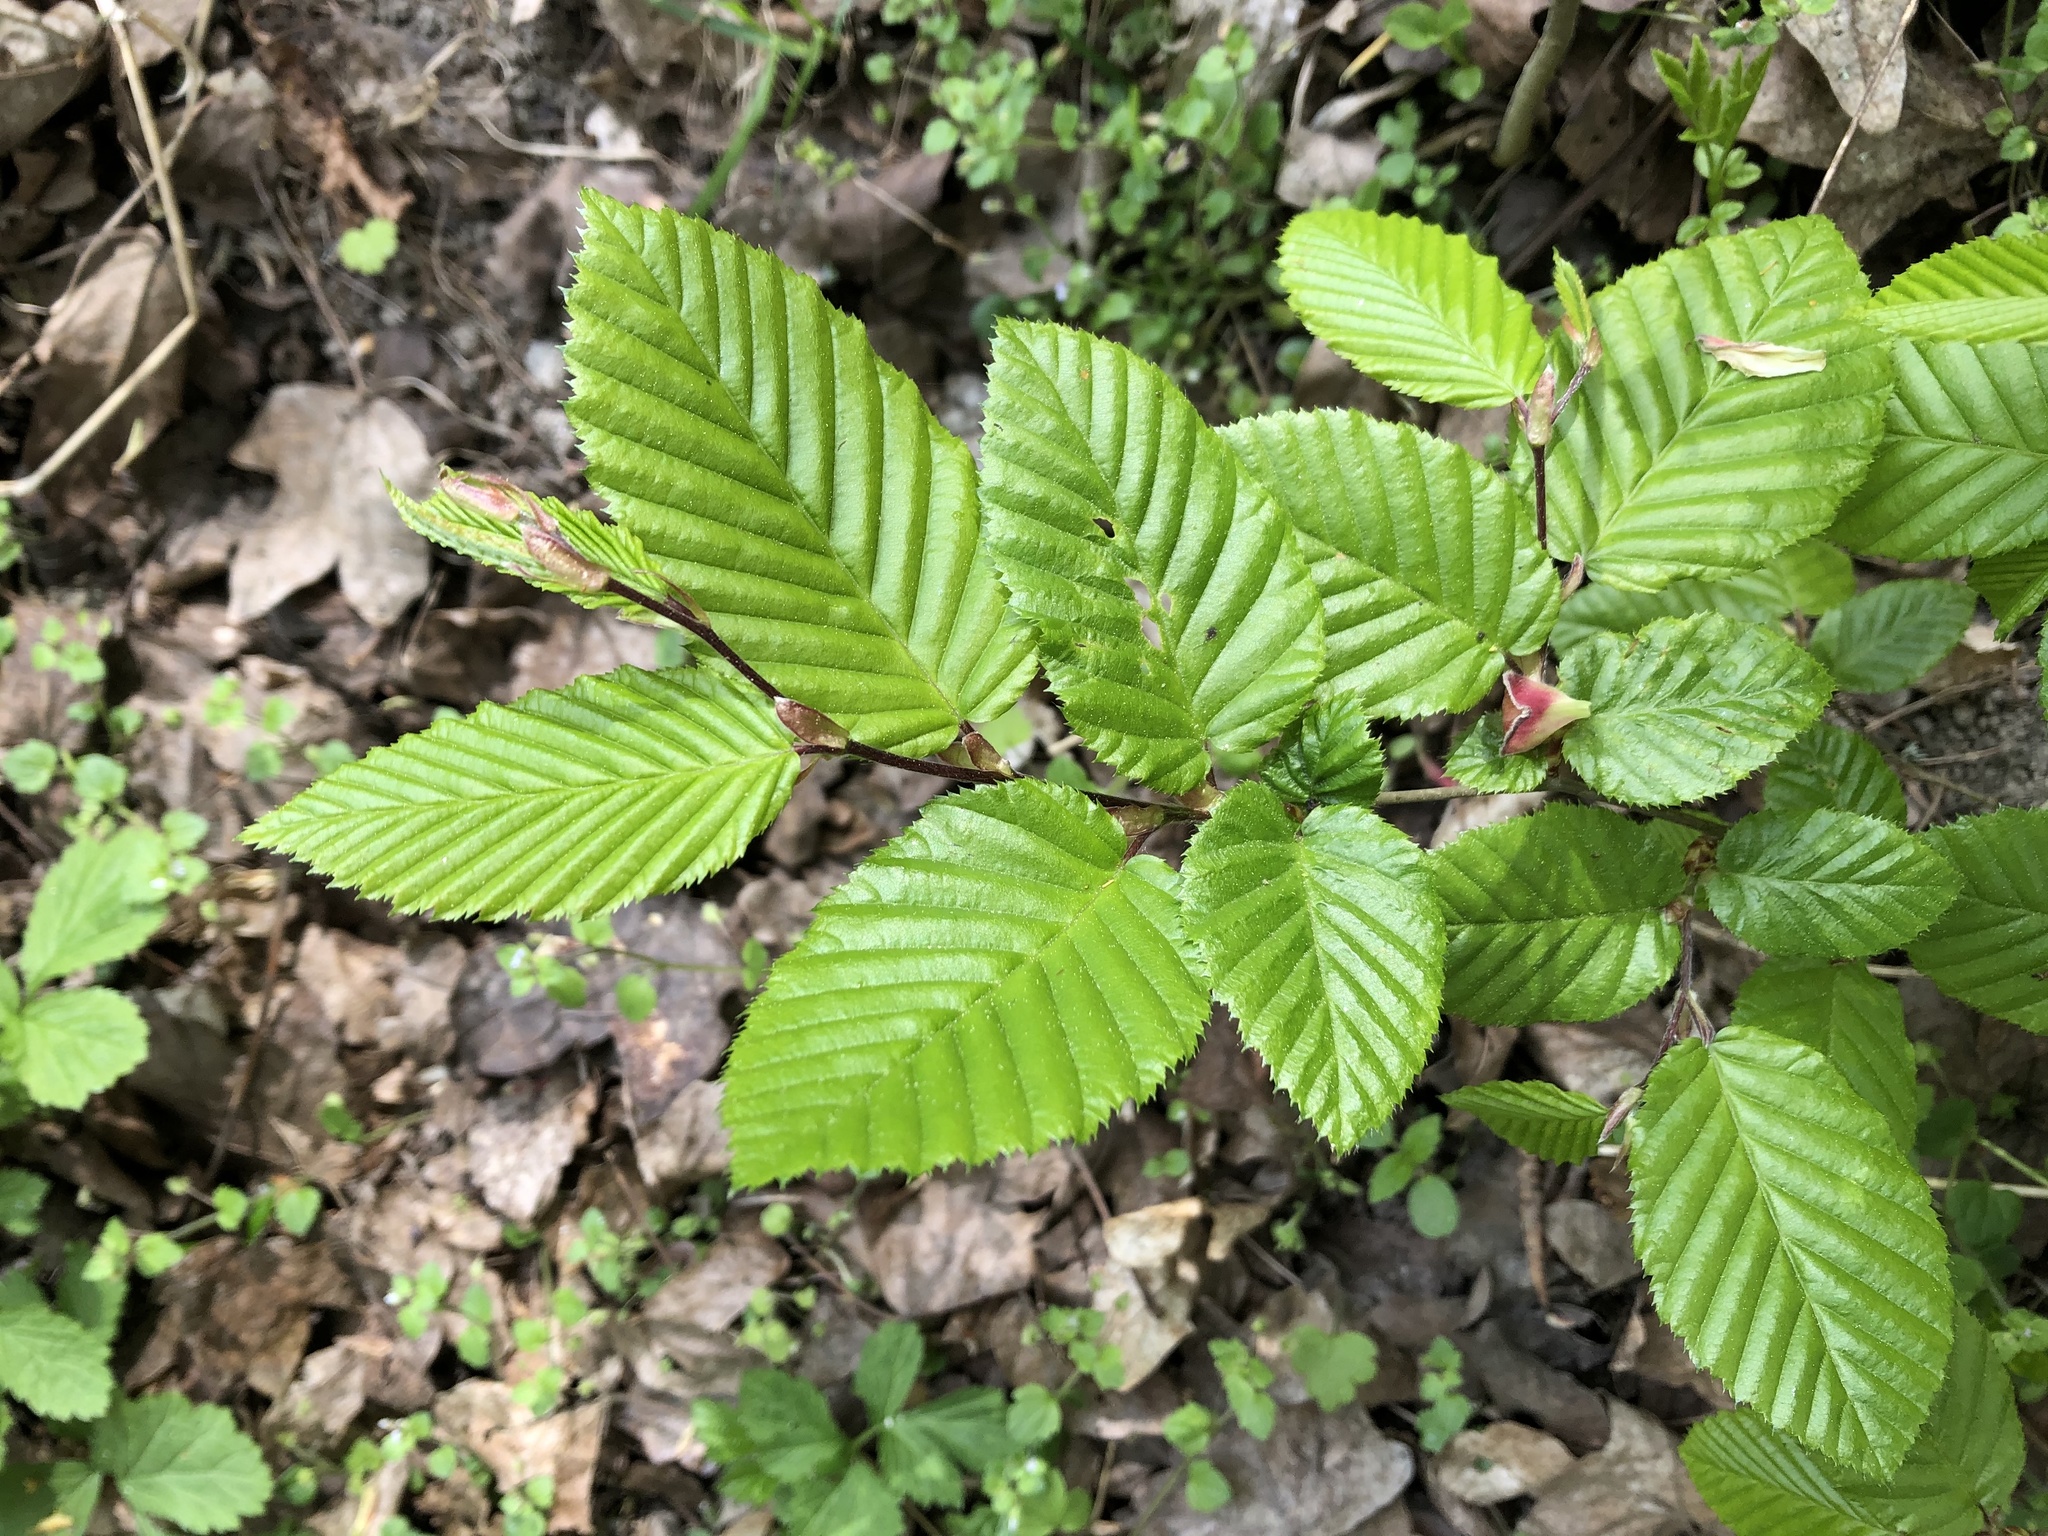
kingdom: Plantae
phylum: Tracheophyta
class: Magnoliopsida
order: Fagales
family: Betulaceae
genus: Carpinus
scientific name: Carpinus betulus
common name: Hornbeam
